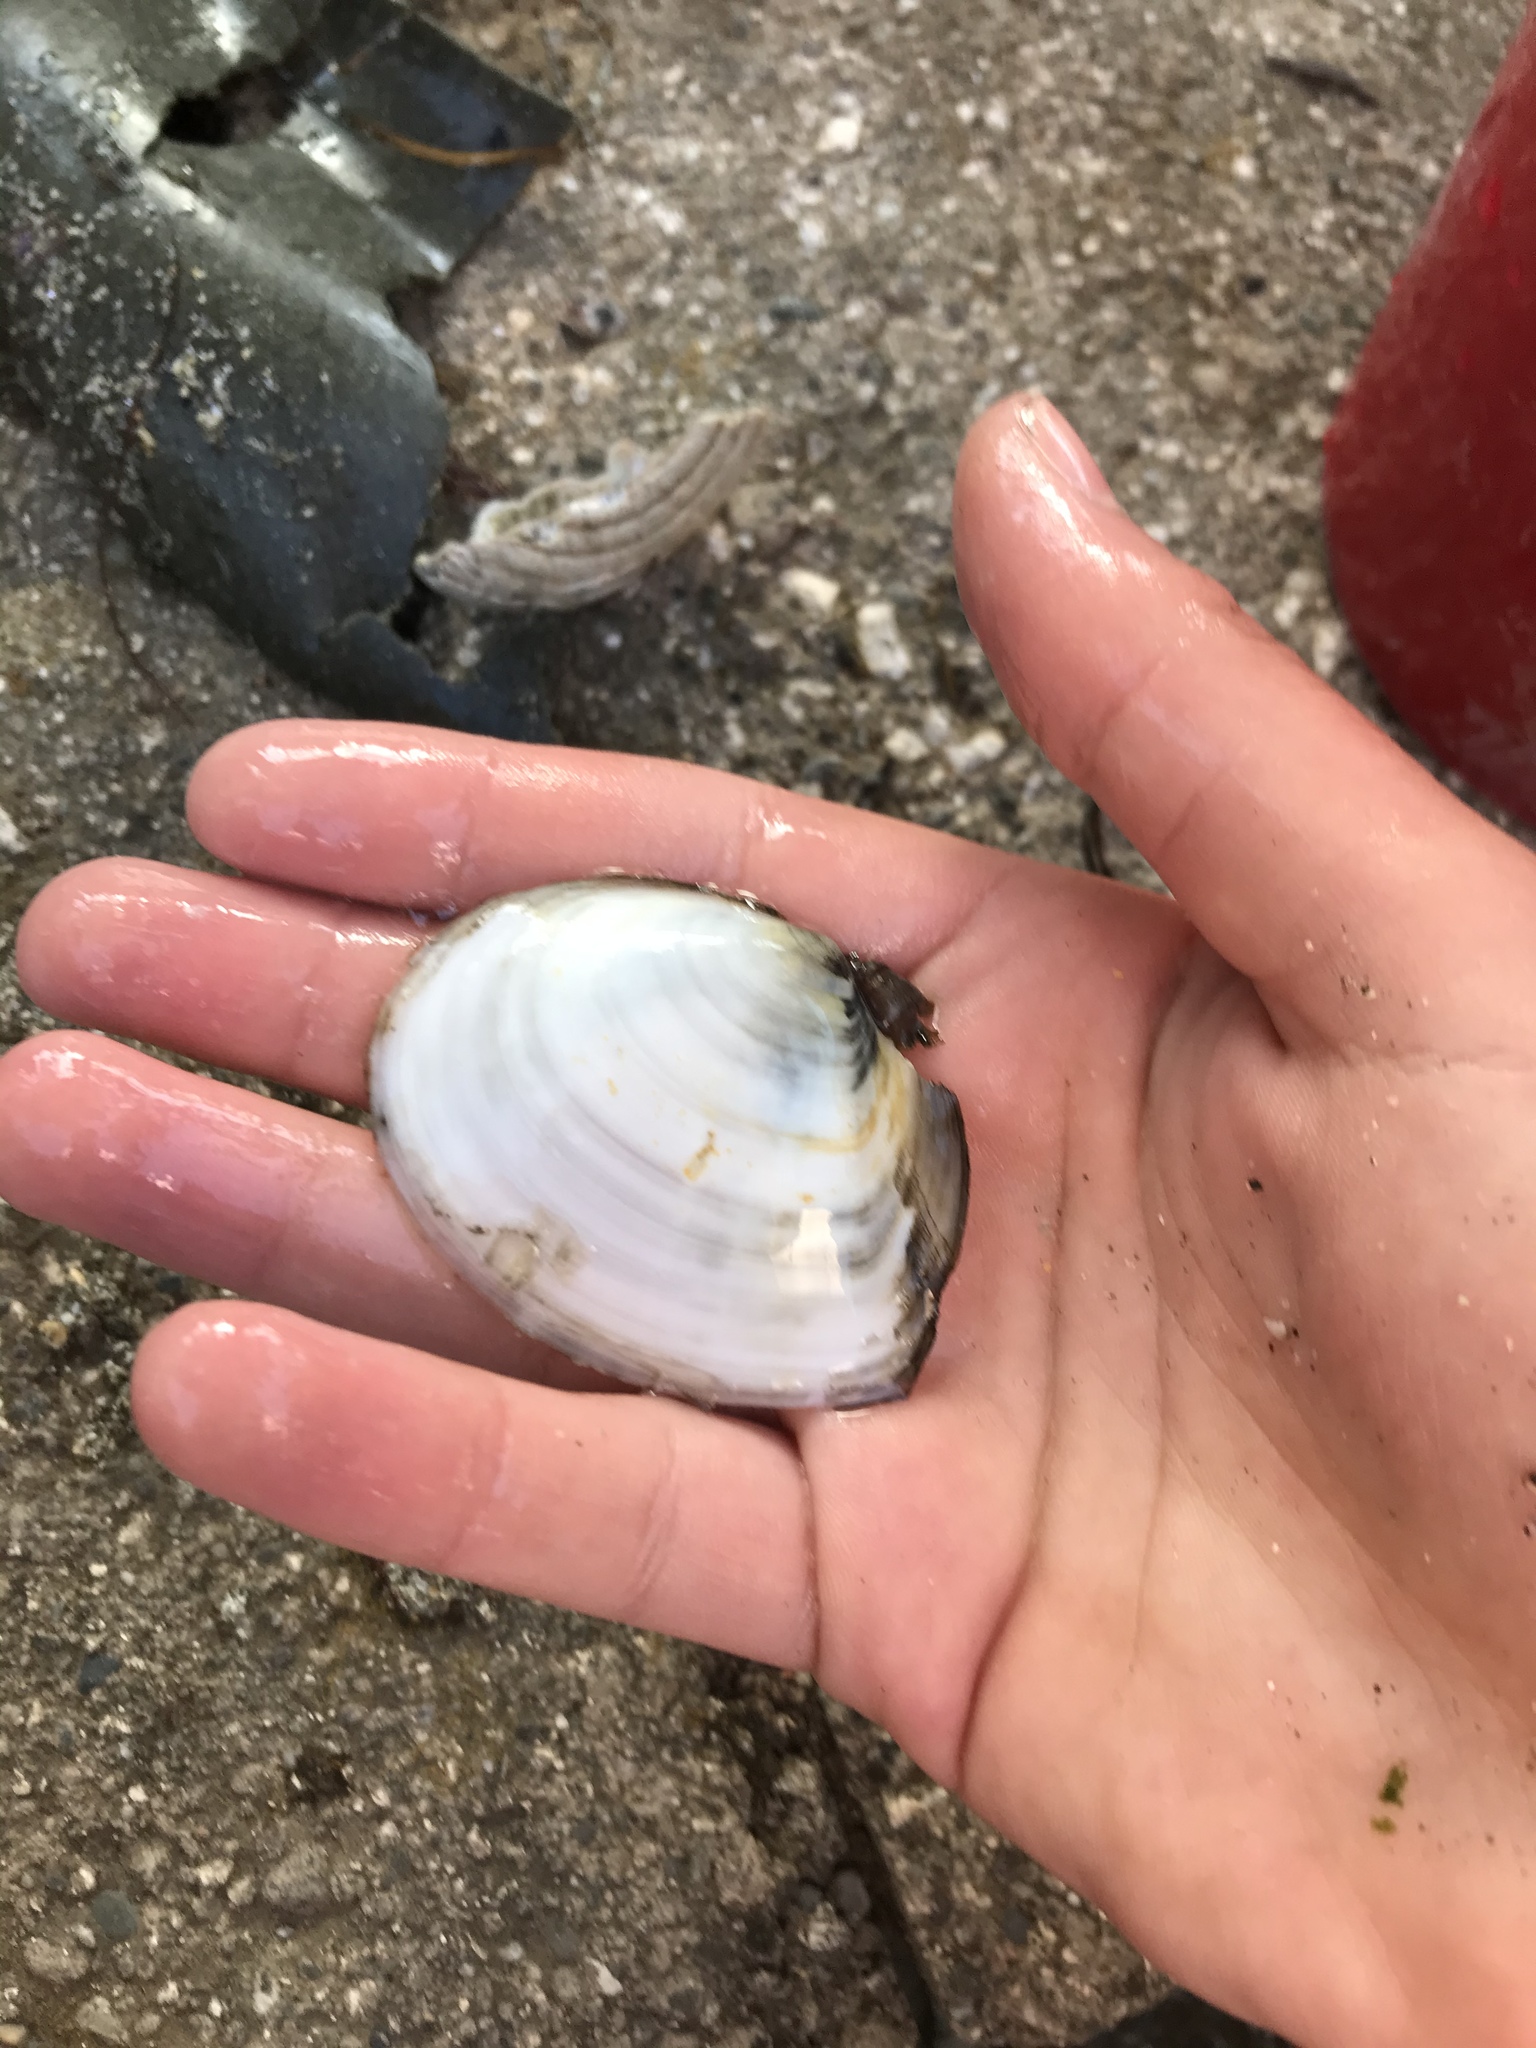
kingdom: Animalia
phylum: Mollusca
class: Bivalvia
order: Cardiida
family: Tellinidae
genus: Rexithaerus
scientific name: Rexithaerus secta
